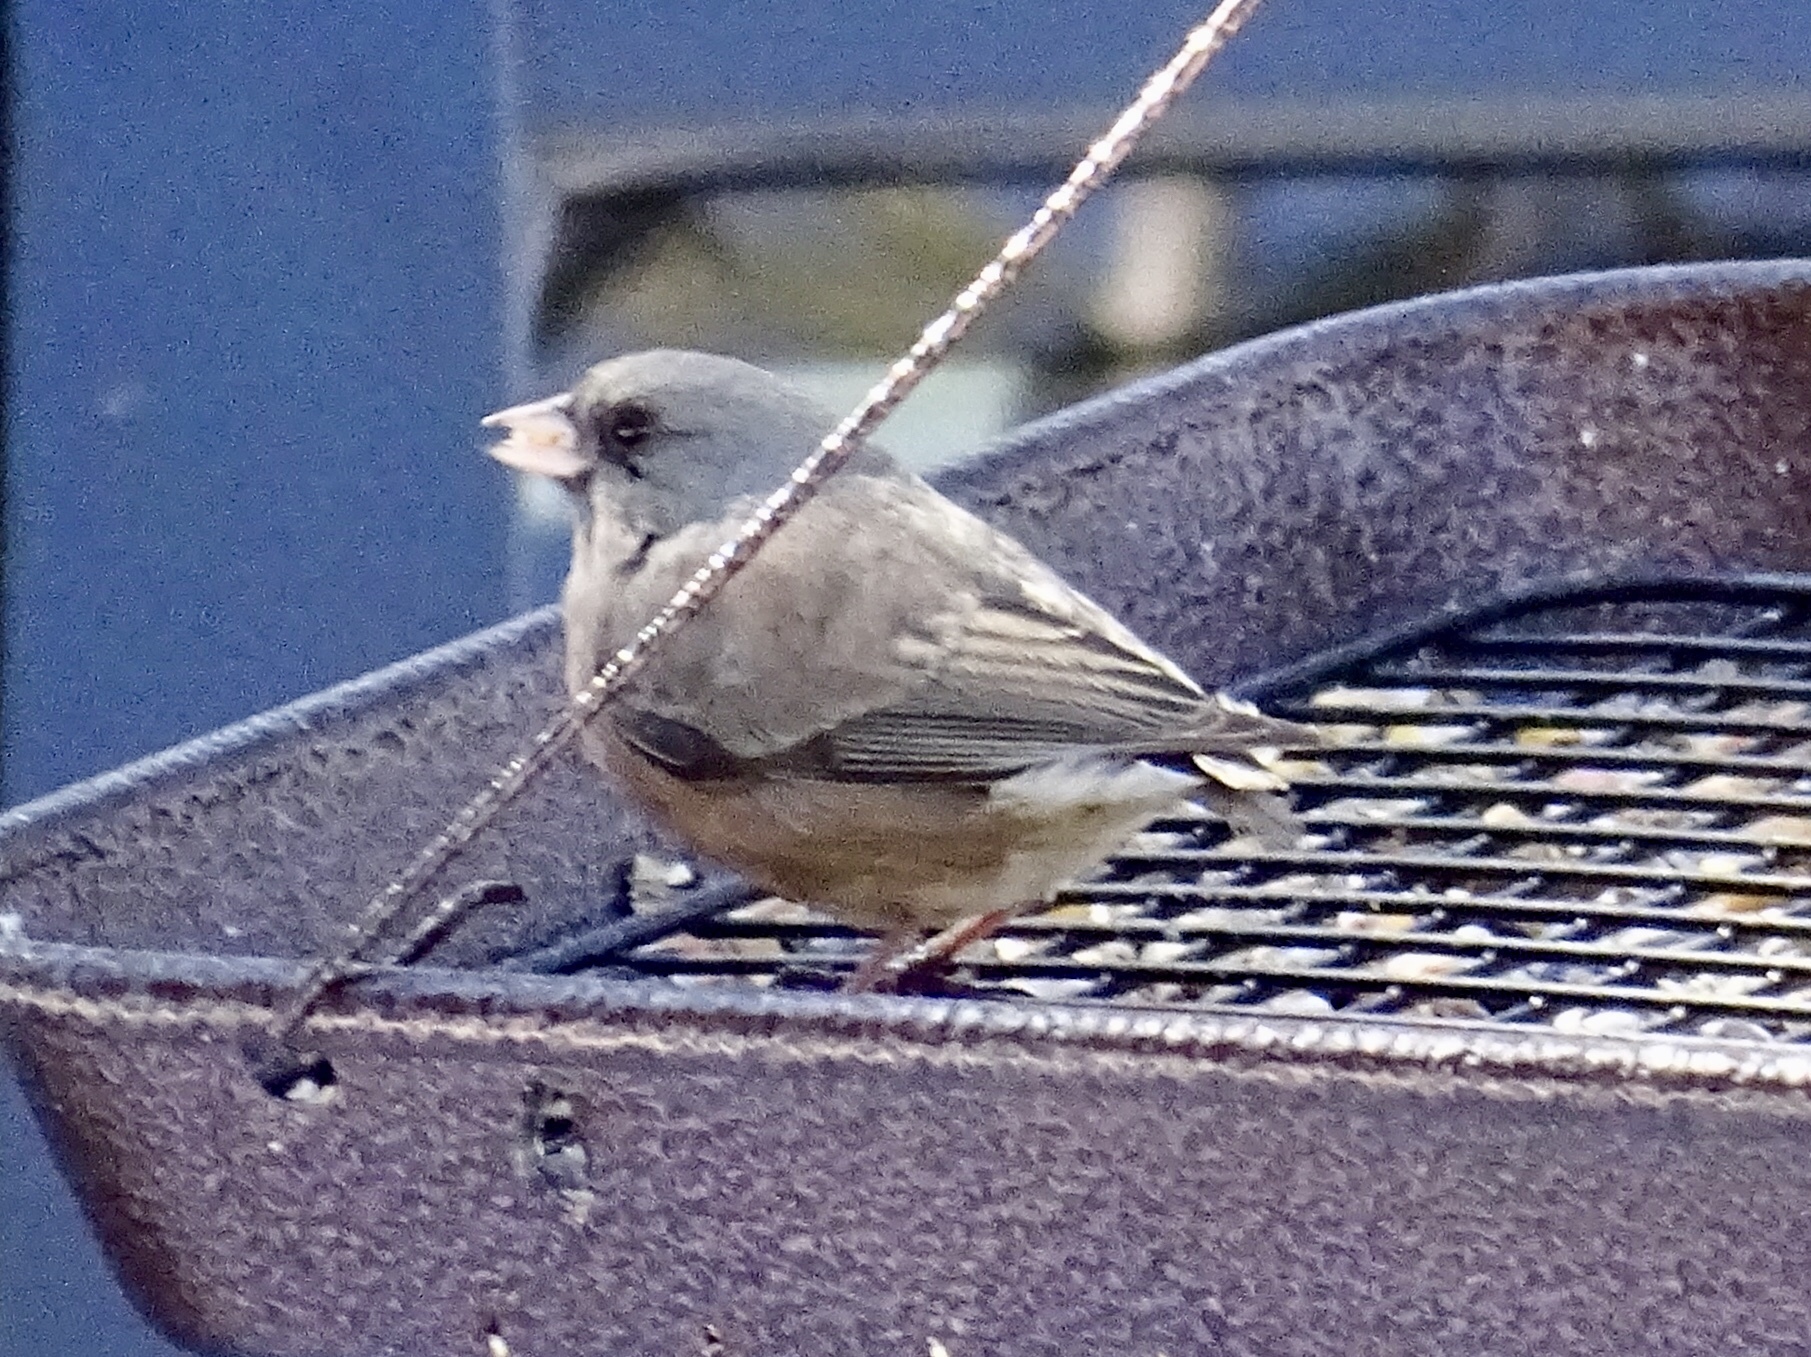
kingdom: Animalia
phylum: Chordata
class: Aves
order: Passeriformes
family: Passerellidae
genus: Junco
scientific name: Junco hyemalis
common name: Dark-eyed junco
